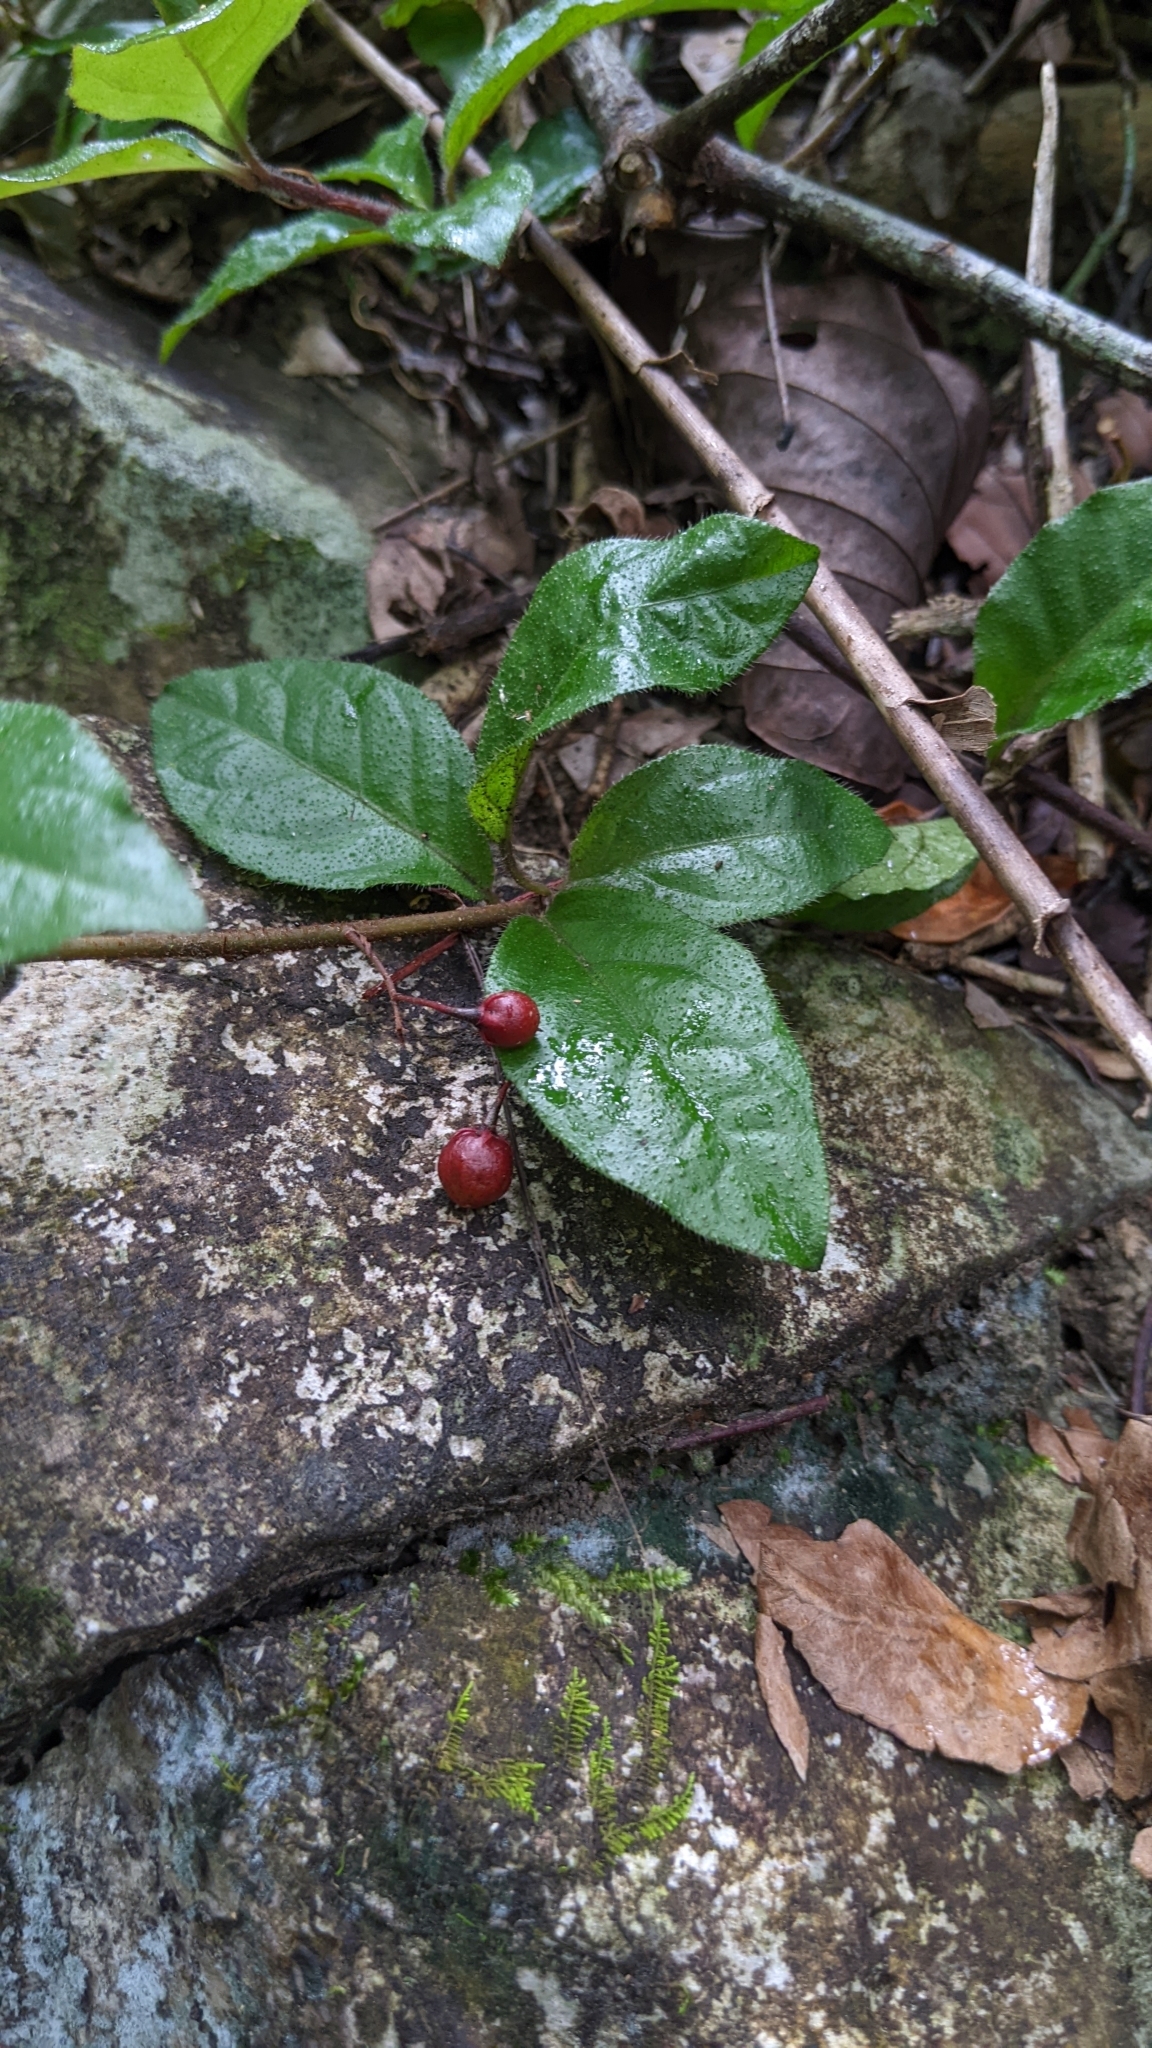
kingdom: Plantae
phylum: Tracheophyta
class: Magnoliopsida
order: Ericales
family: Primulaceae
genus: Ardisia
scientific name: Ardisia pusilla
